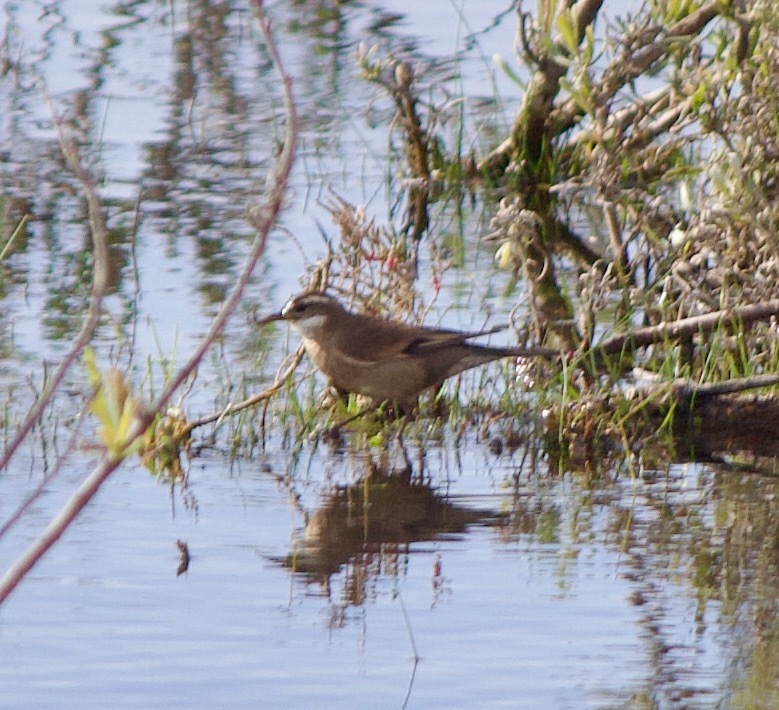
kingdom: Animalia
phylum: Chordata
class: Aves
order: Passeriformes
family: Furnariidae
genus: Cinclodes
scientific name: Cinclodes fuscus
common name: Buff-winged cinclodes
